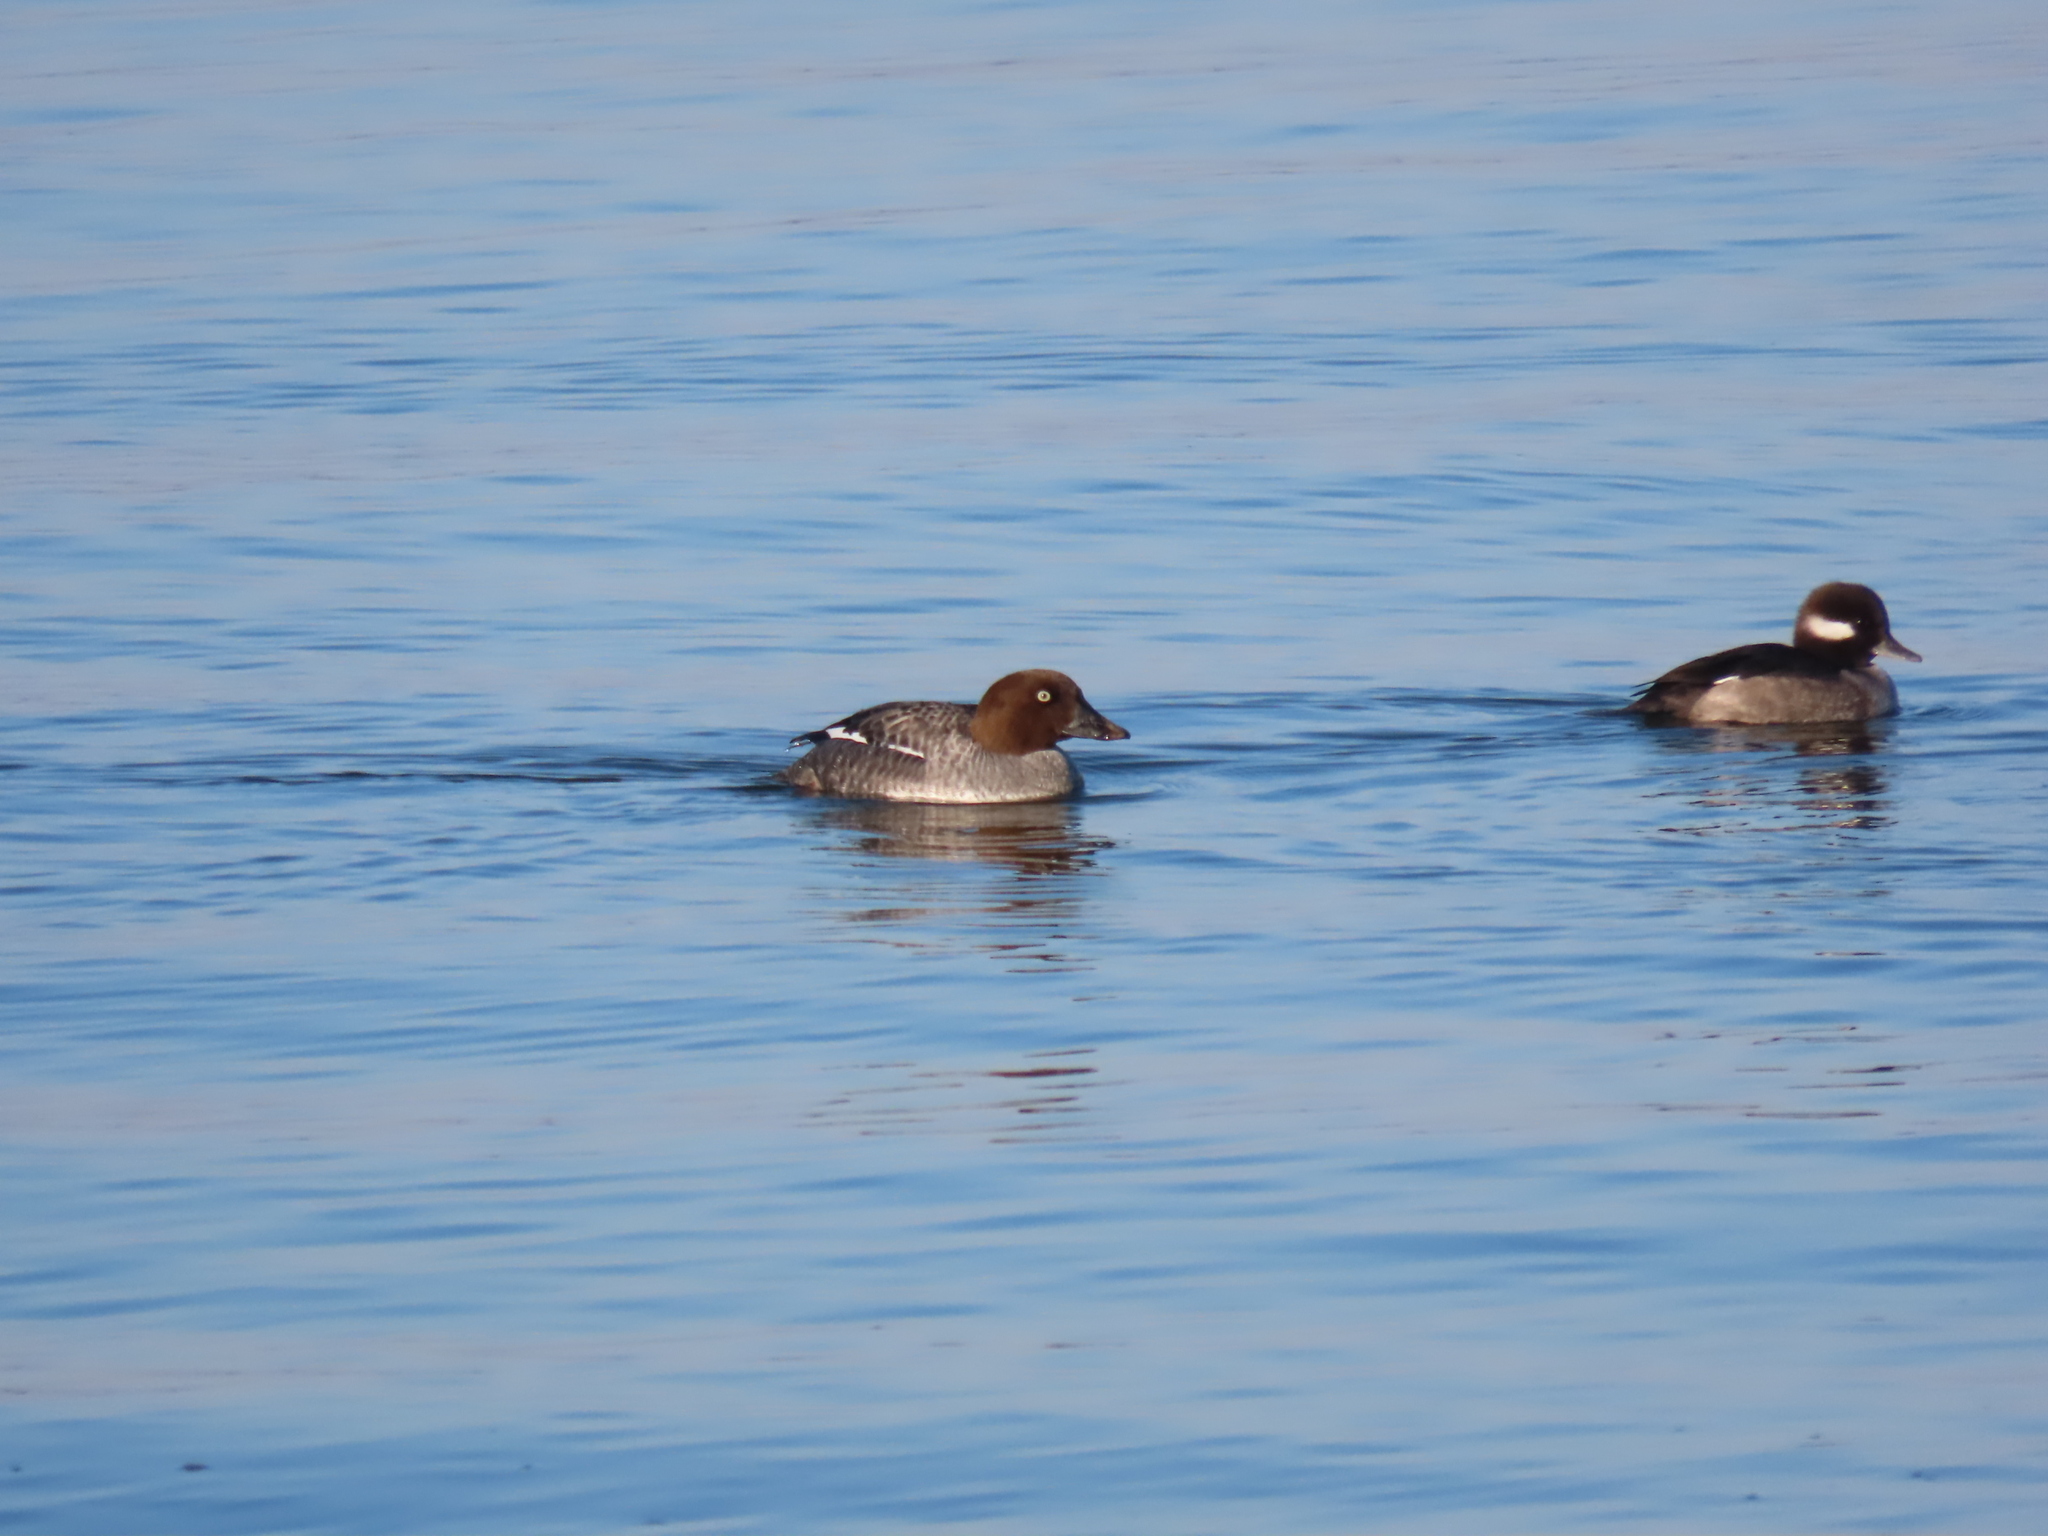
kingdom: Animalia
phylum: Chordata
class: Aves
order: Anseriformes
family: Anatidae
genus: Bucephala
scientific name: Bucephala clangula
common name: Common goldeneye
